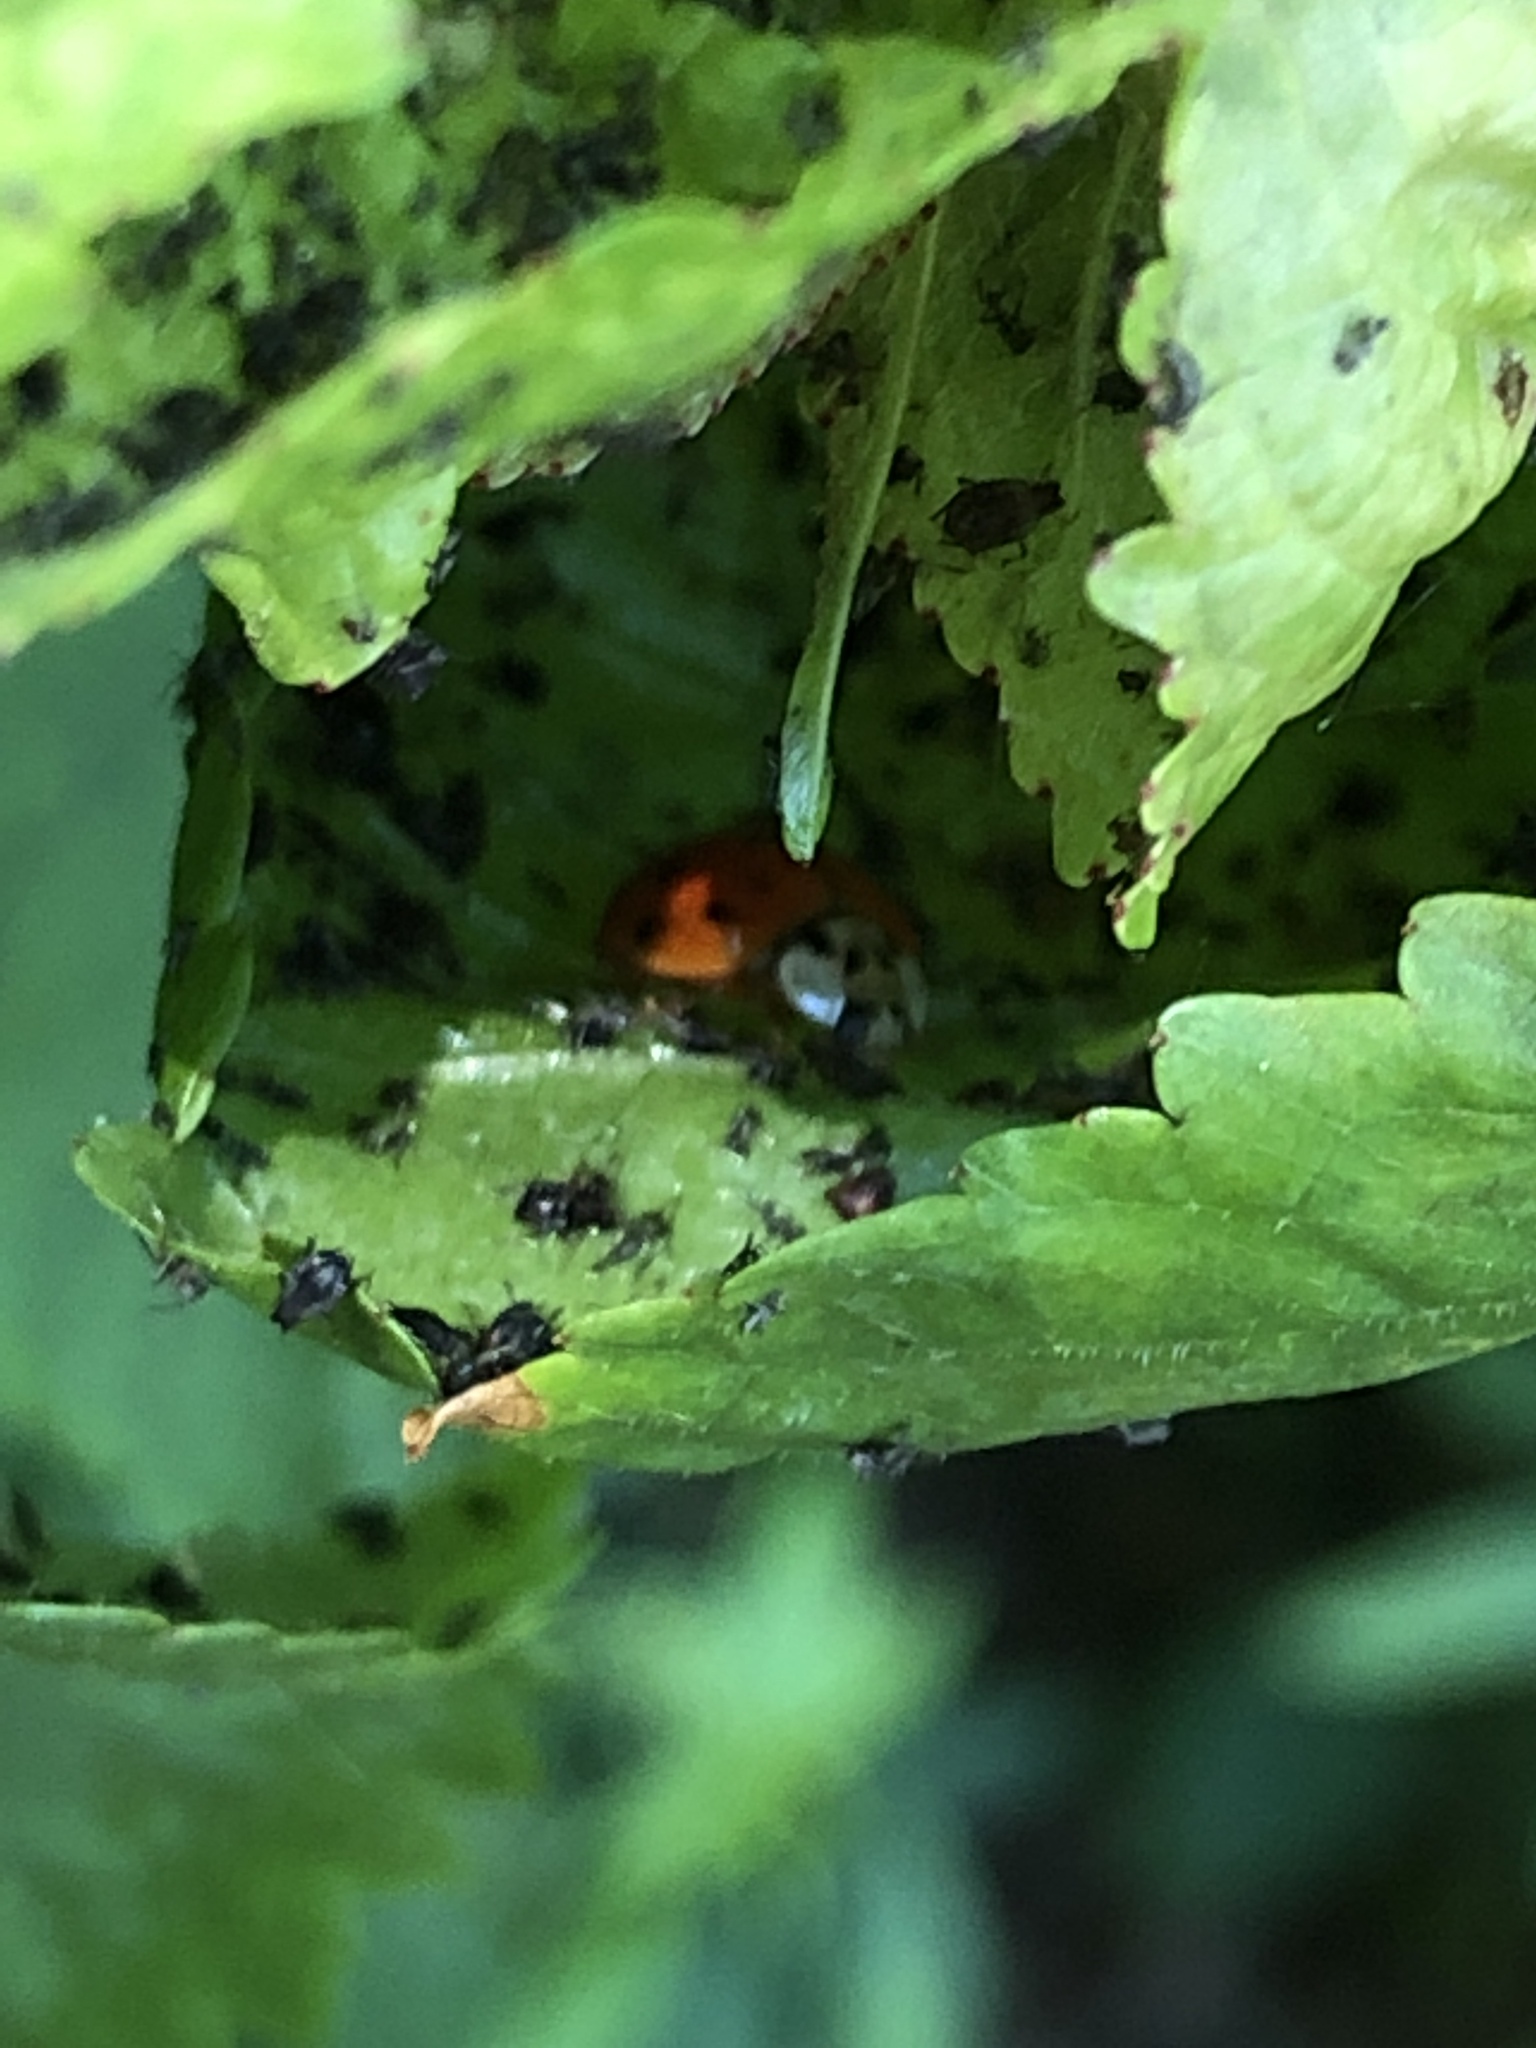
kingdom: Animalia
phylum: Arthropoda
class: Insecta
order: Coleoptera
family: Coccinellidae
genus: Harmonia
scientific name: Harmonia axyridis
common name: Harlequin ladybird
